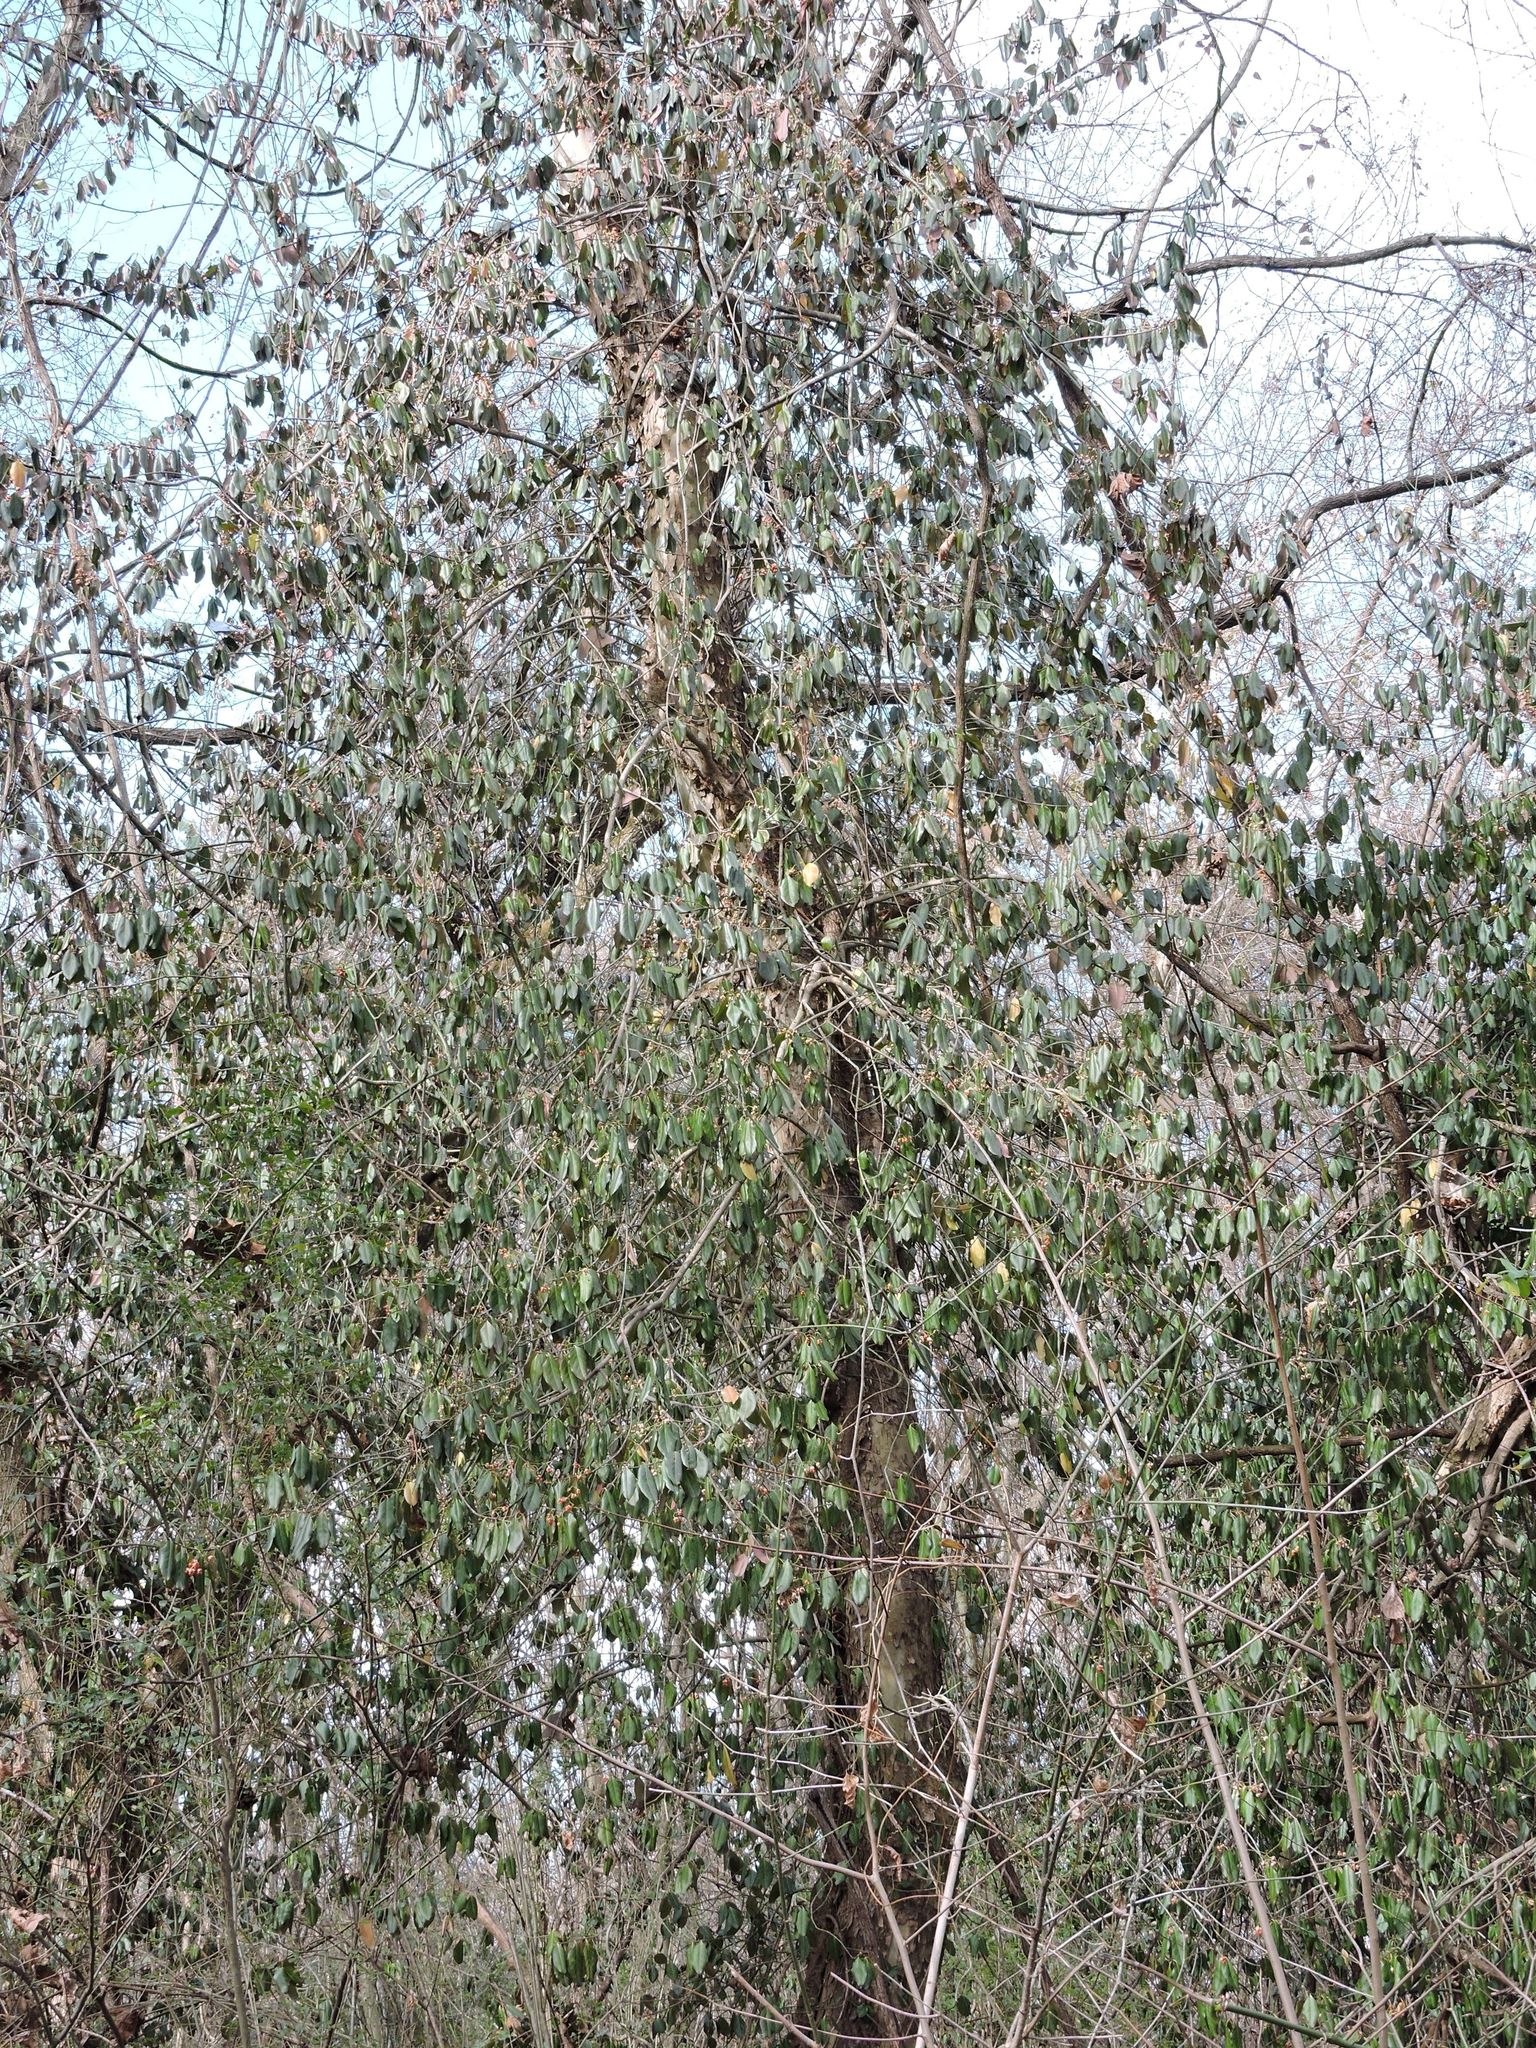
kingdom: Plantae
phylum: Tracheophyta
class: Magnoliopsida
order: Celastrales
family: Celastraceae
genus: Euonymus
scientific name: Euonymus fortunei
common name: Climbing euonymus
